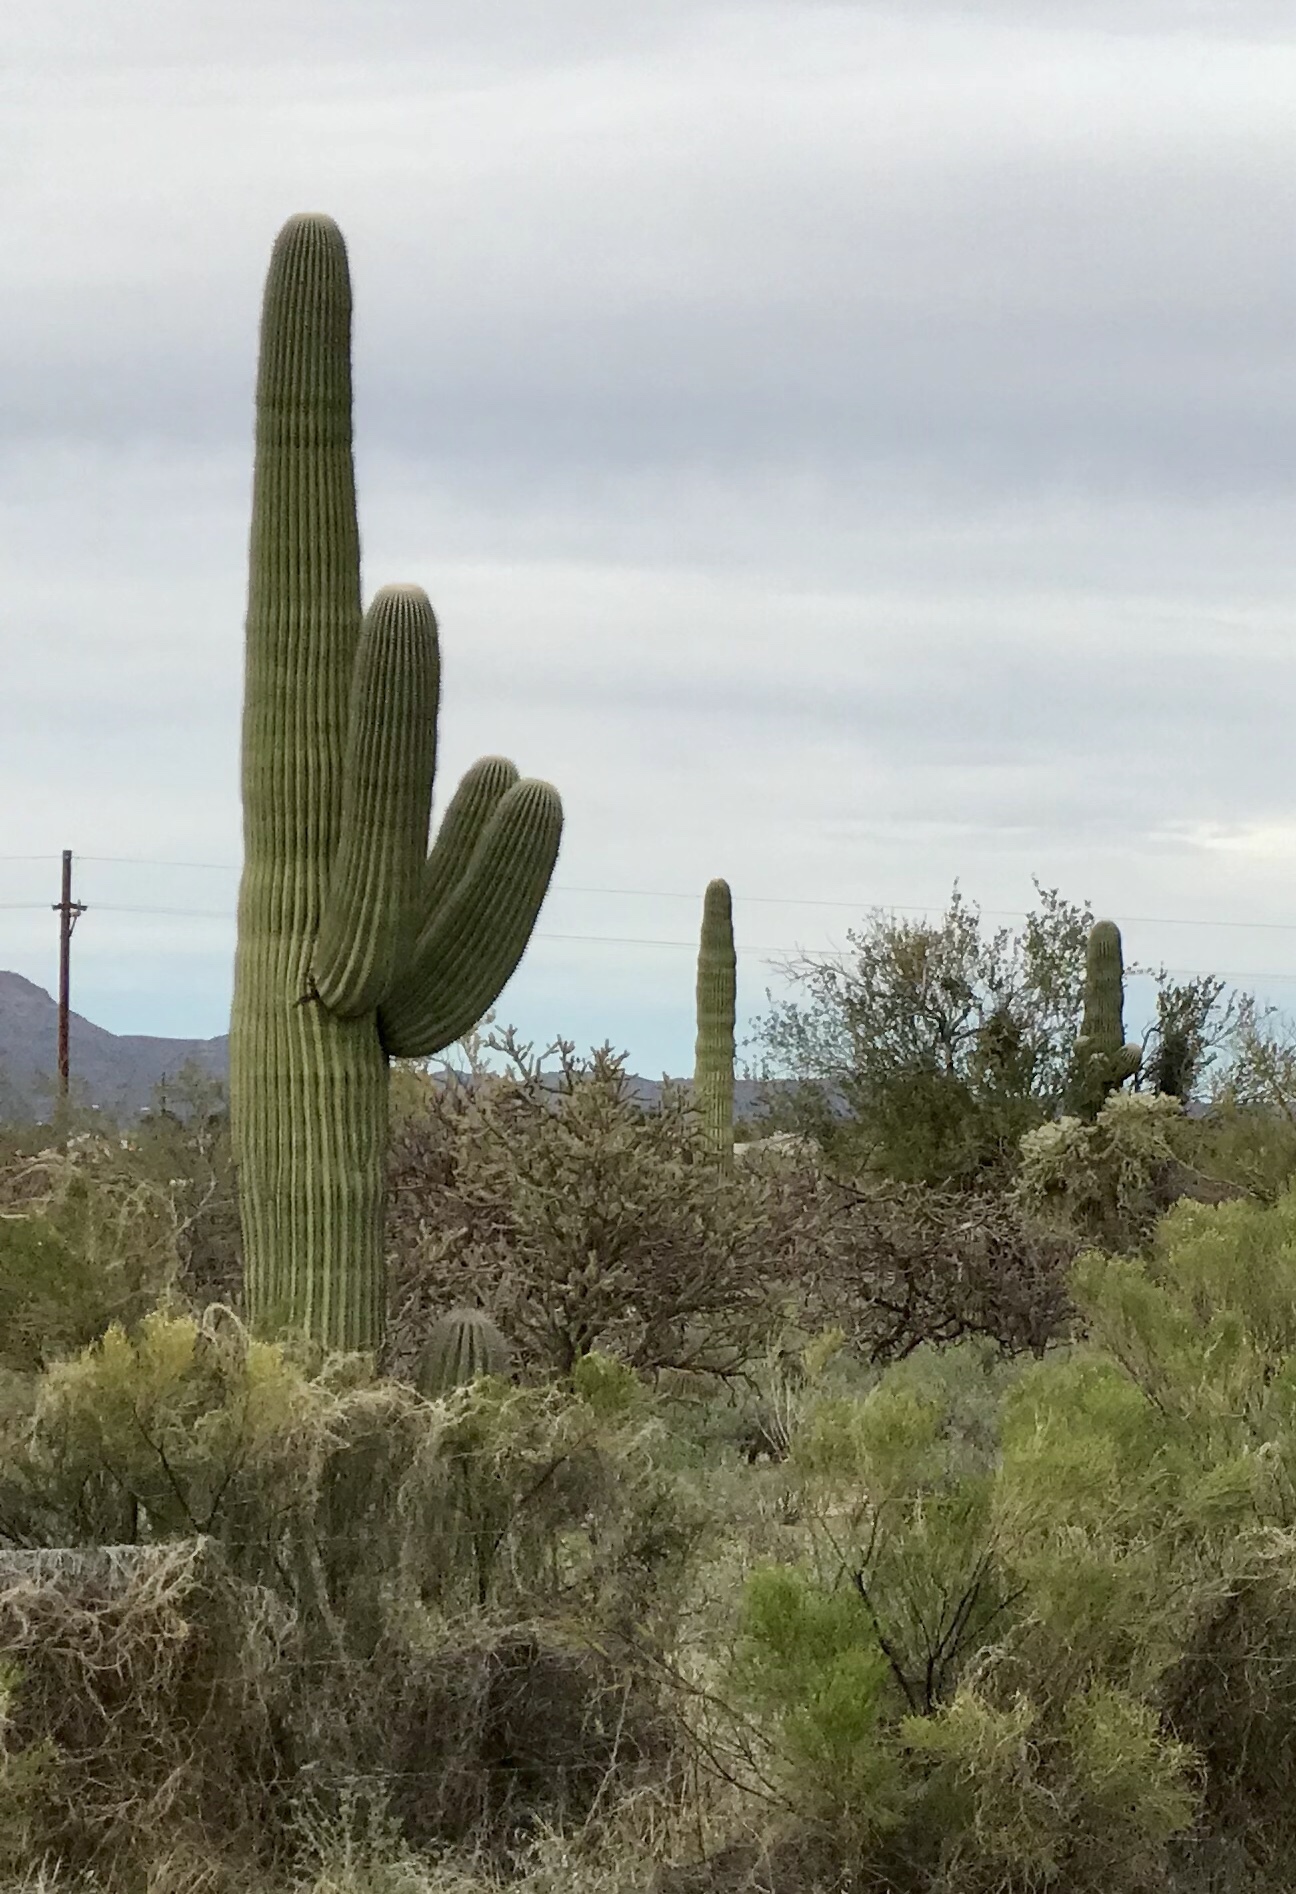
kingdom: Plantae
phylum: Tracheophyta
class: Magnoliopsida
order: Caryophyllales
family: Cactaceae
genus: Carnegiea
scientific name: Carnegiea gigantea
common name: Saguaro
